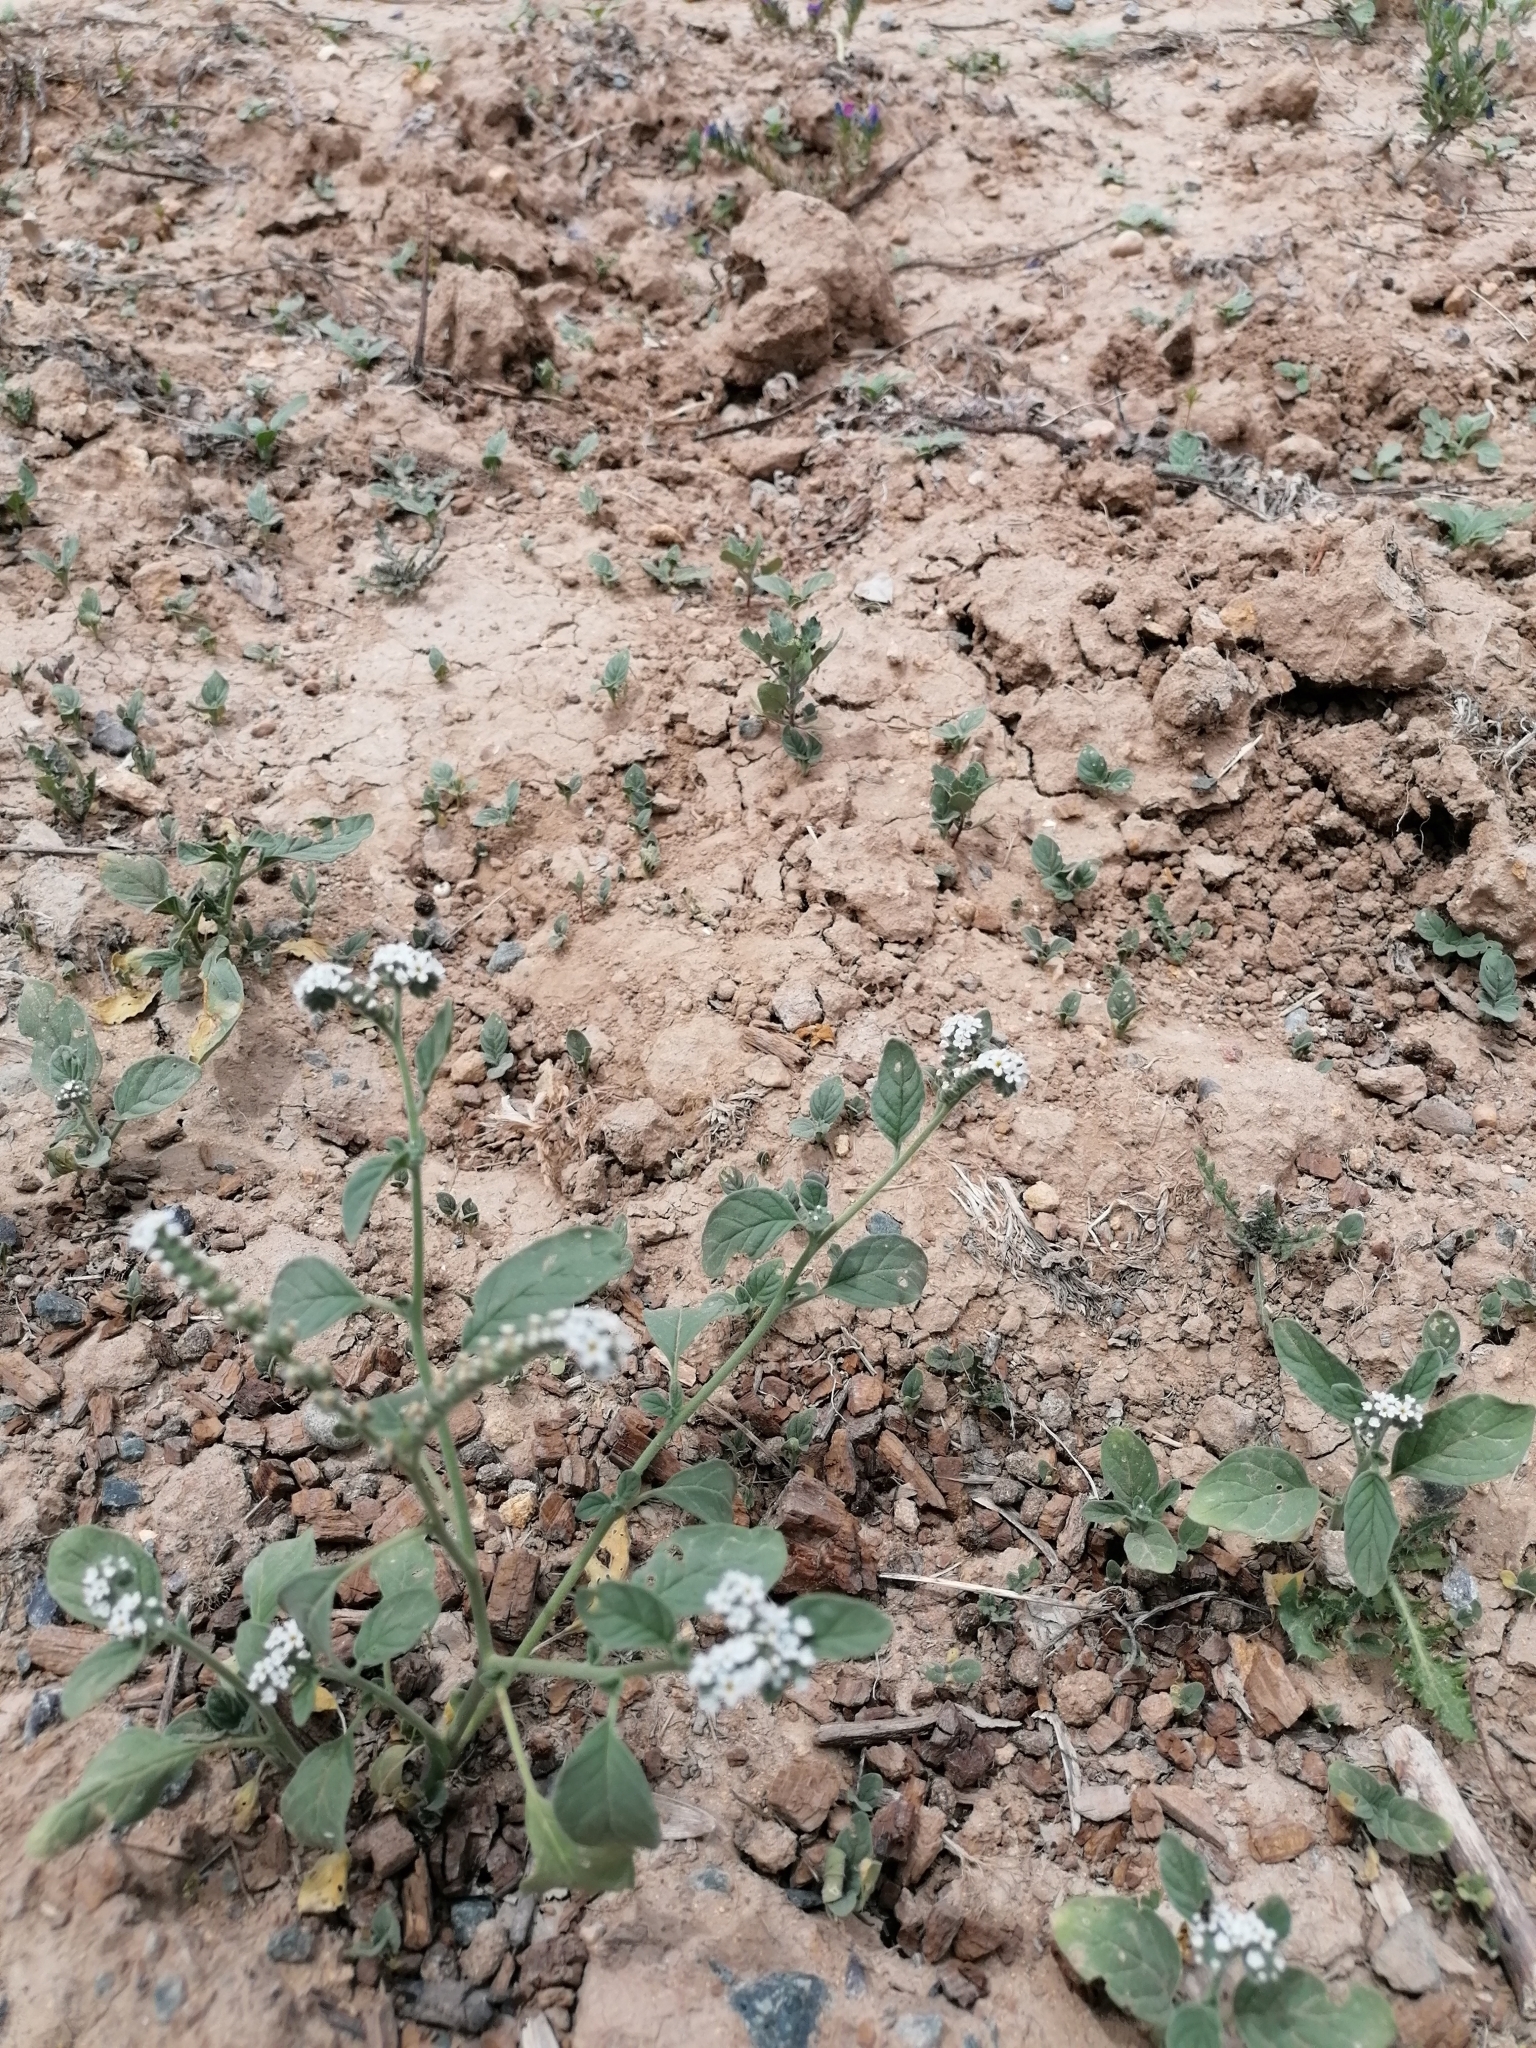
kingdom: Plantae
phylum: Tracheophyta
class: Magnoliopsida
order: Boraginales
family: Heliotropiaceae
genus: Heliotropium
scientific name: Heliotropium europaeum
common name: European heliotrope
